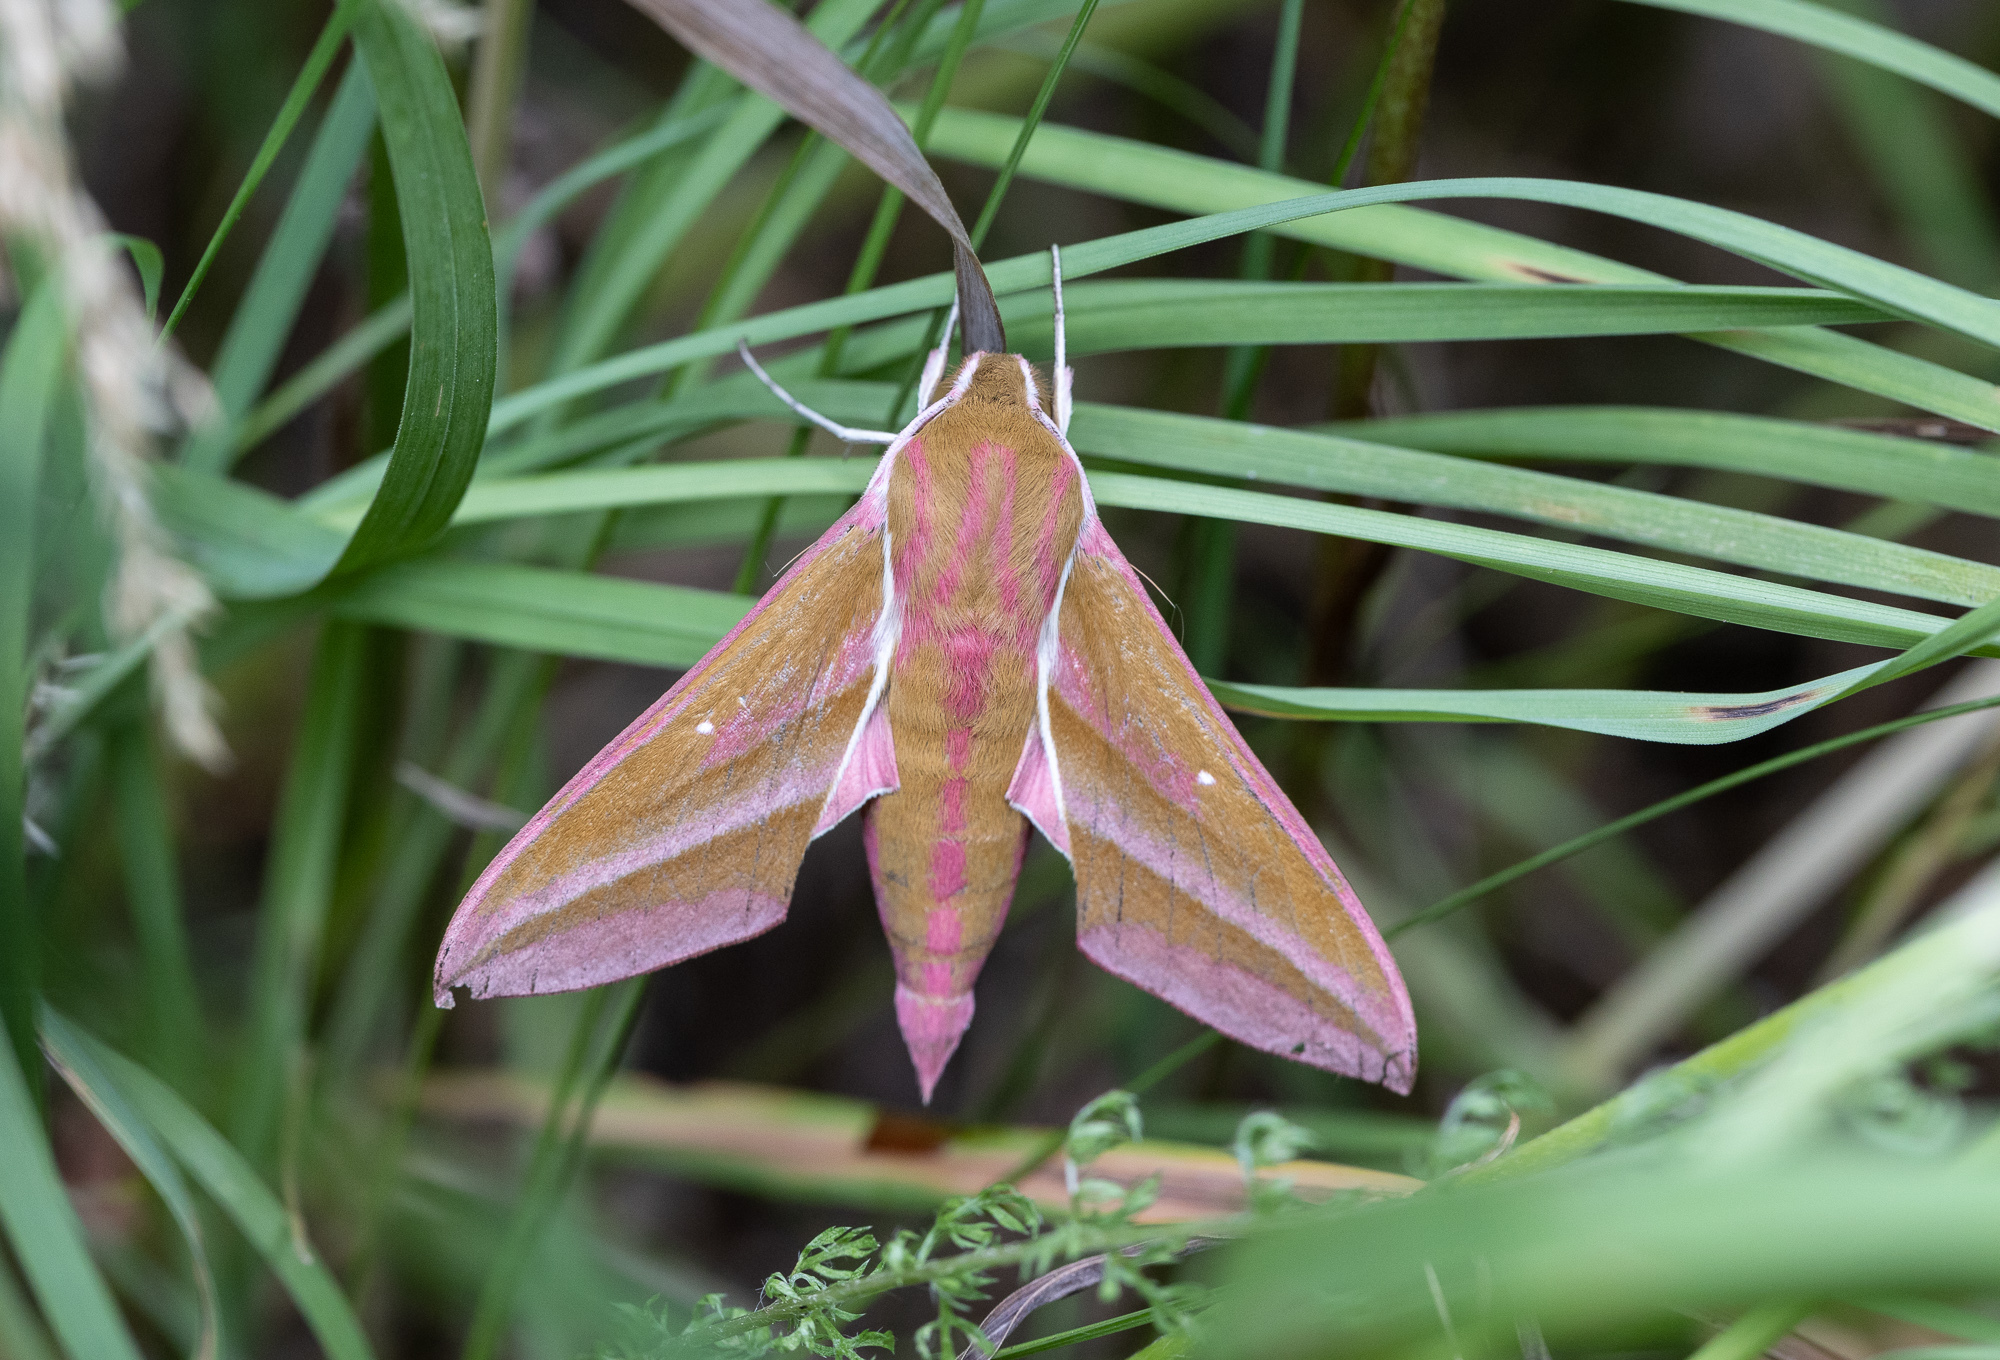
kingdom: Animalia
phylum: Arthropoda
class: Insecta
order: Lepidoptera
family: Sphingidae
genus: Deilephila
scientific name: Deilephila elpenor
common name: Elephant hawk-moth
